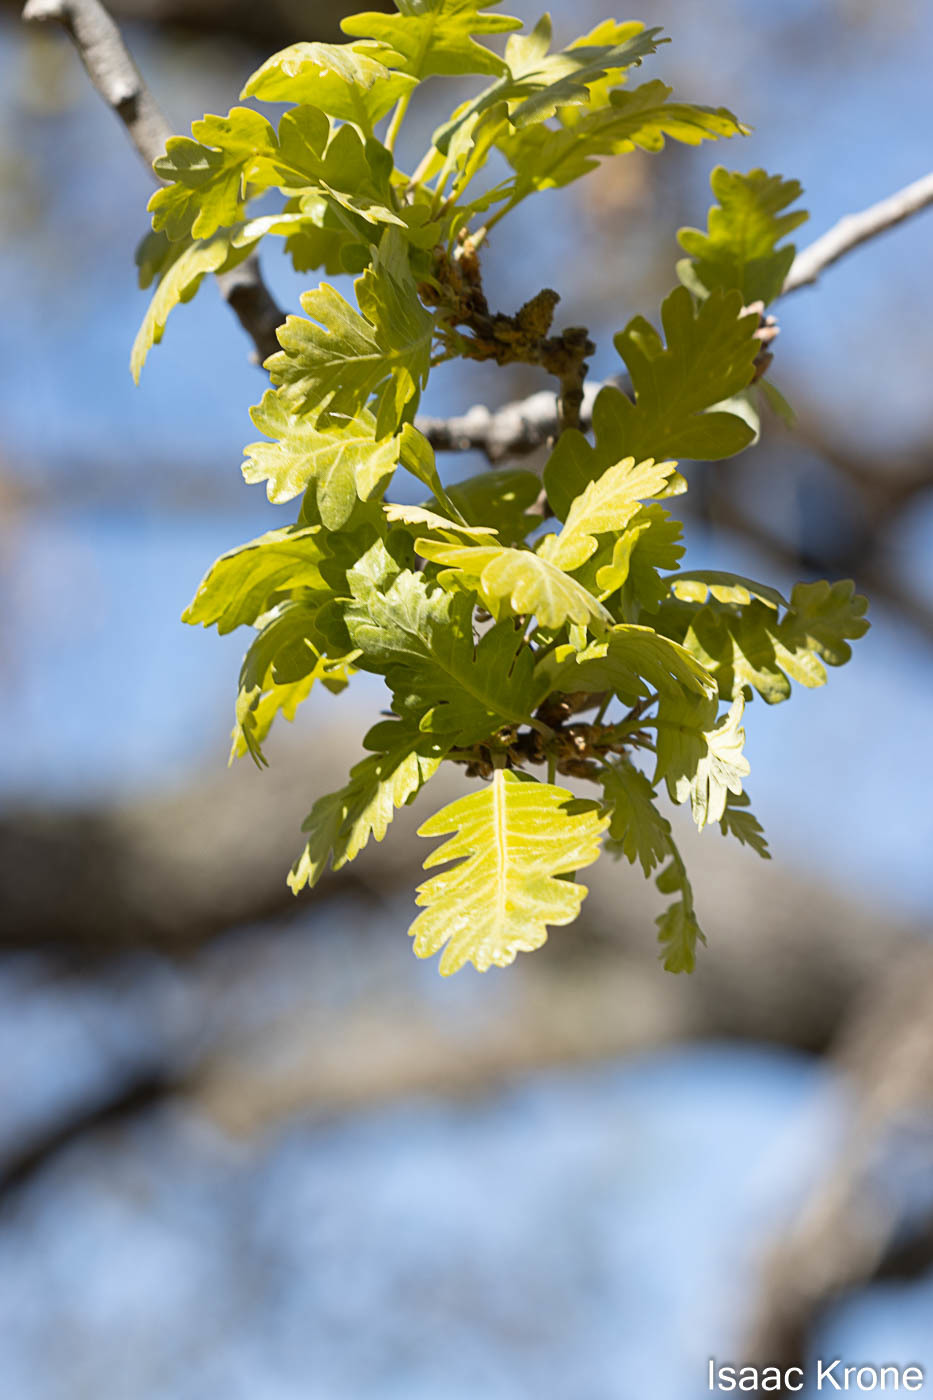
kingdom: Plantae
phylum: Tracheophyta
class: Magnoliopsida
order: Fagales
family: Fagaceae
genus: Quercus
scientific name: Quercus lobata
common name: Valley oak
